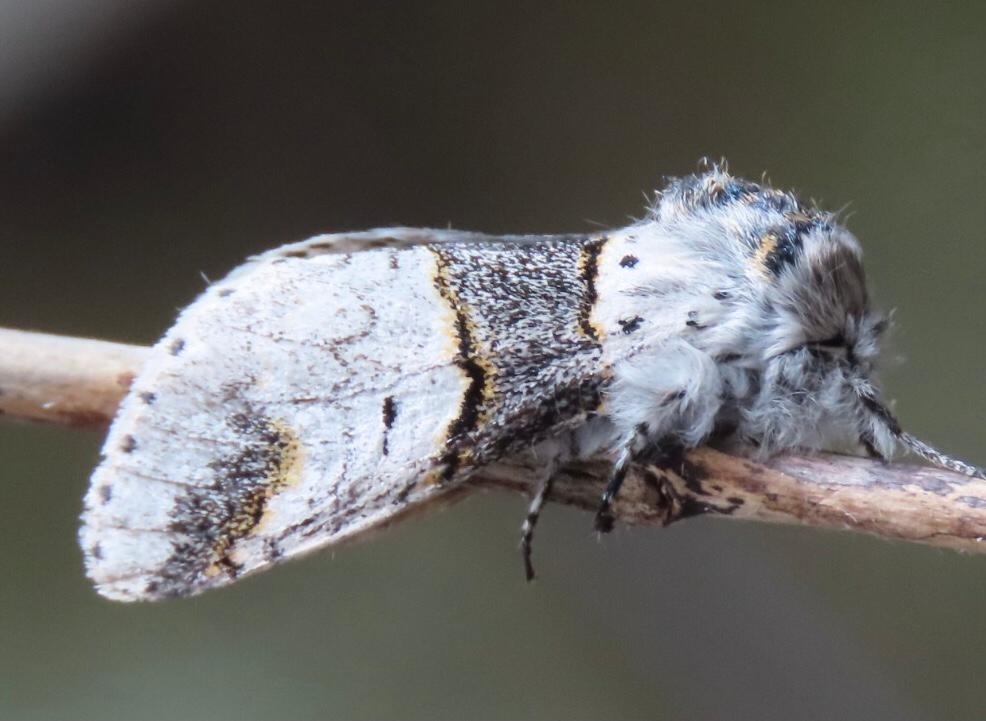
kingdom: Animalia
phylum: Arthropoda
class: Insecta
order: Lepidoptera
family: Notodontidae
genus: Furcula
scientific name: Furcula furcula
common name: Sallow kitten
